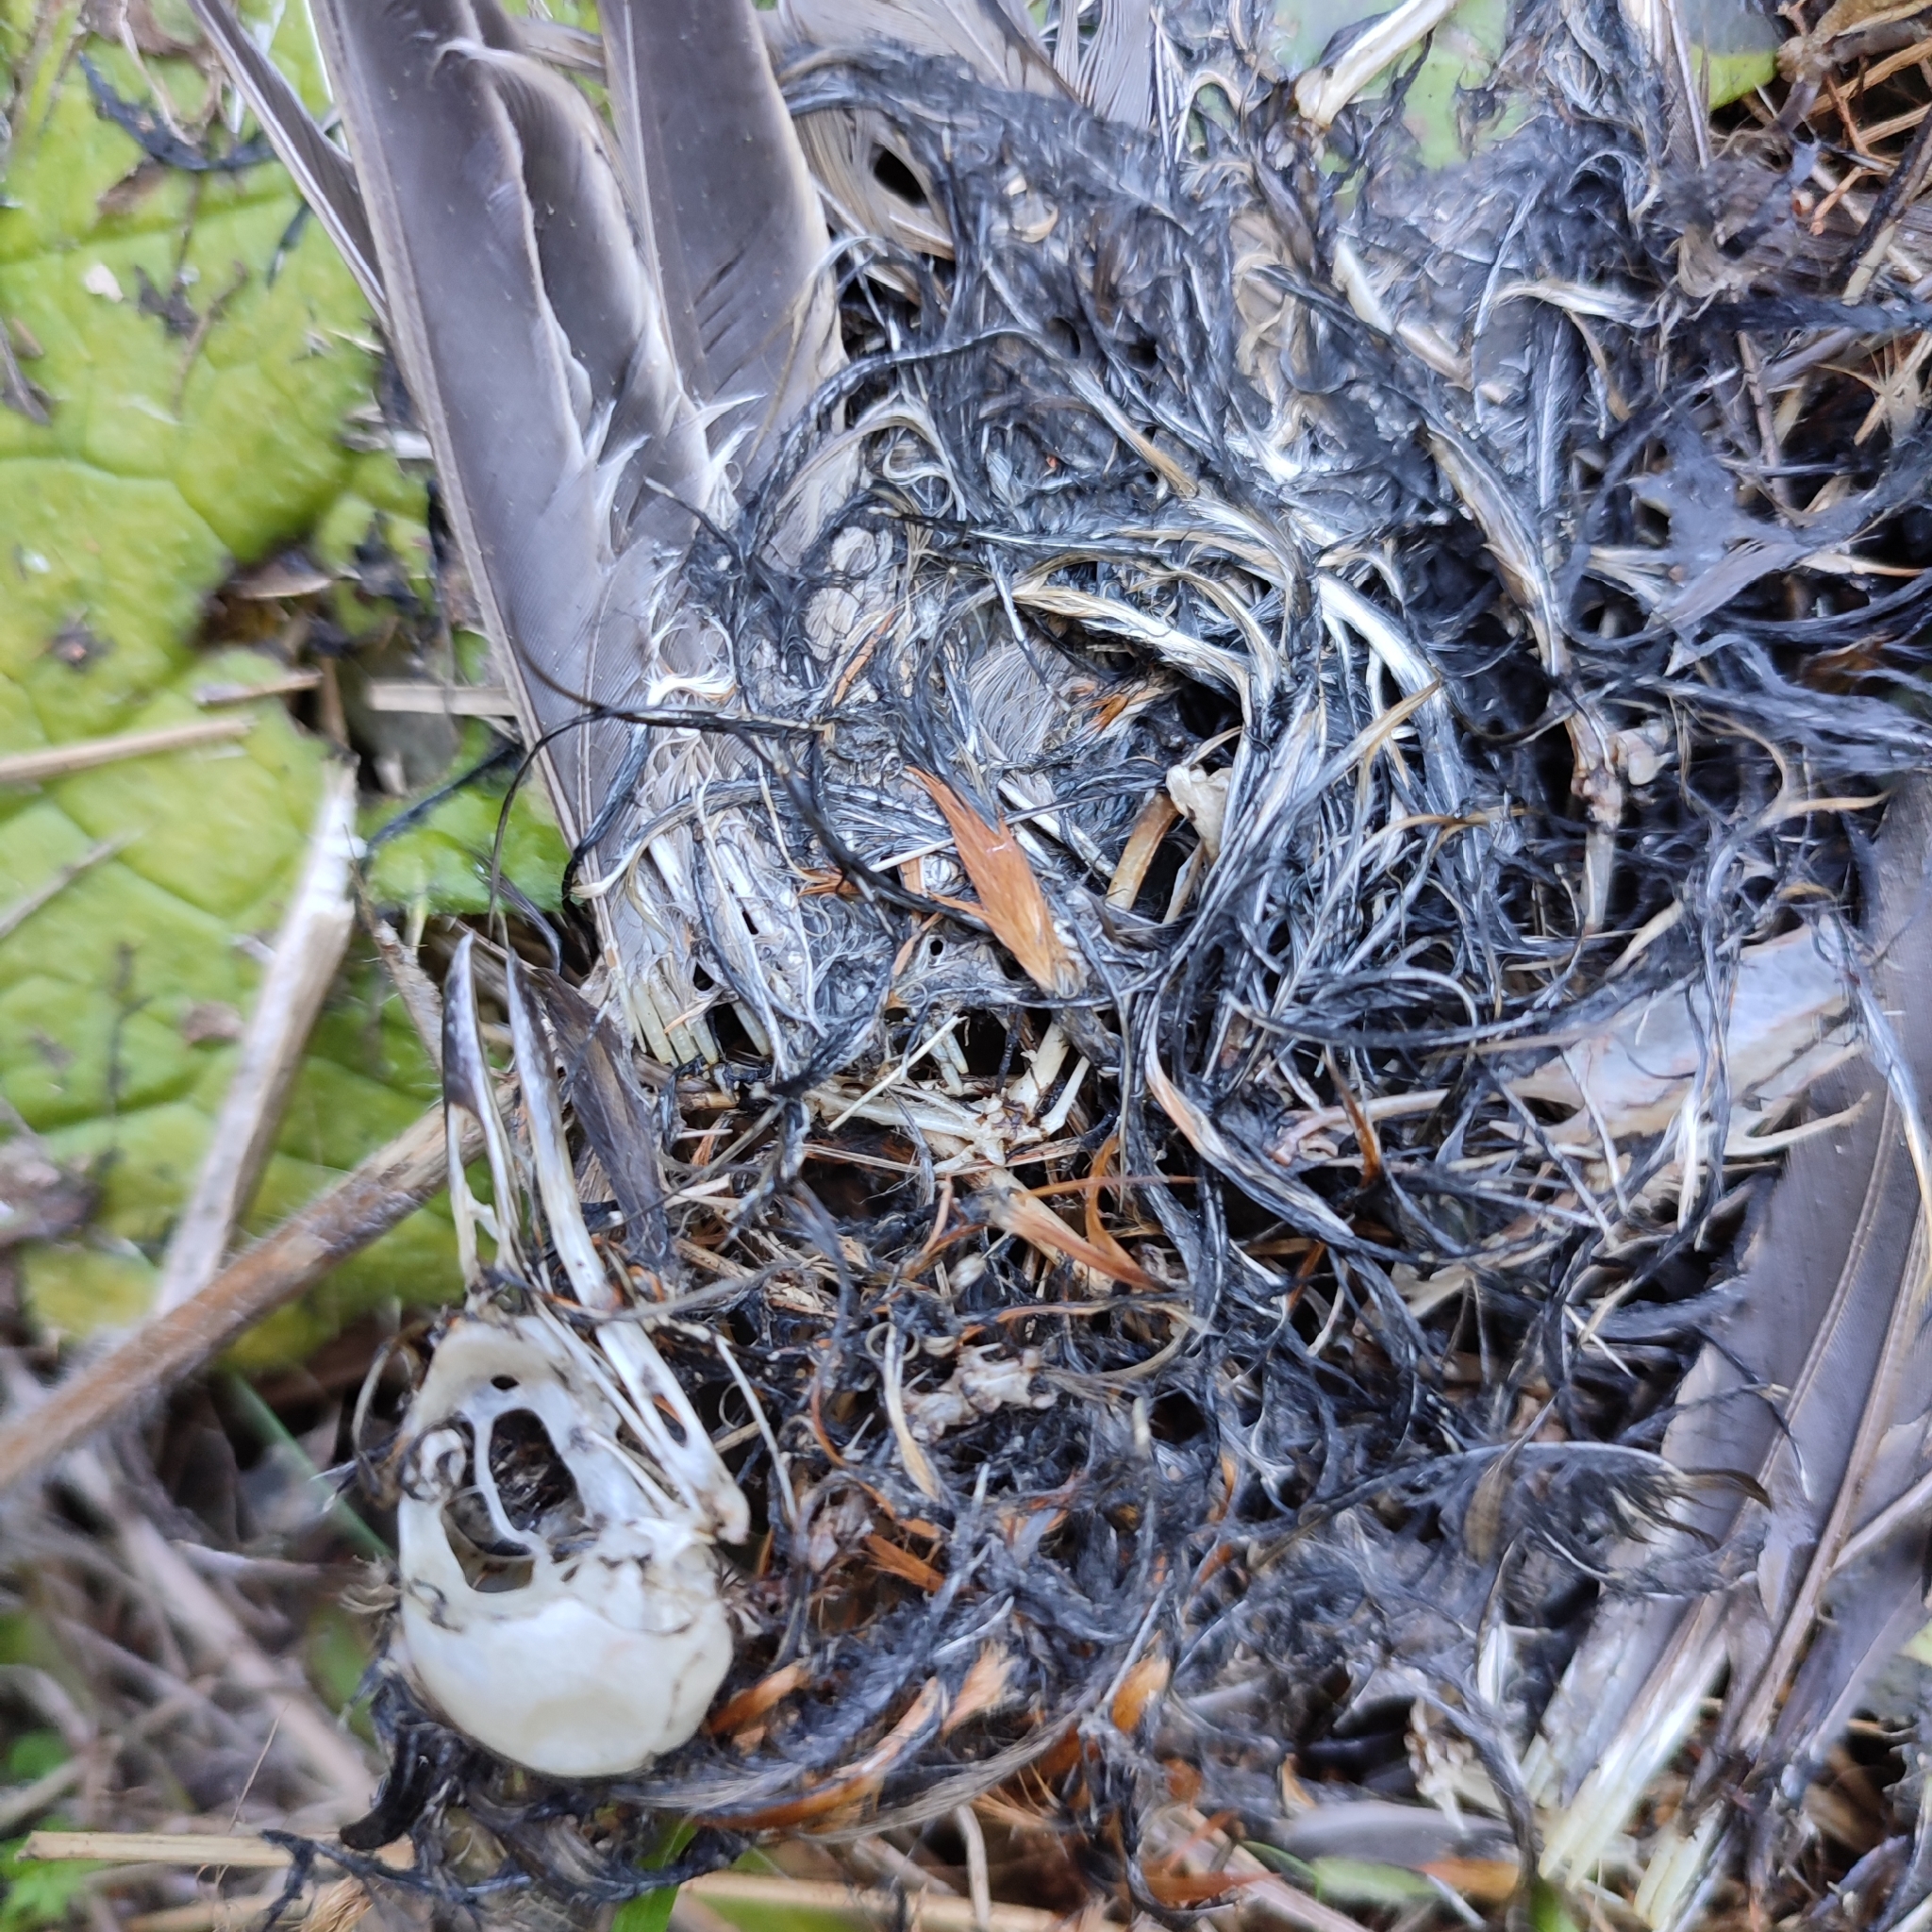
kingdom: Animalia
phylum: Chordata
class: Aves
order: Passeriformes
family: Muscicapidae
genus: Erithacus
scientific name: Erithacus rubecula
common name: European robin
